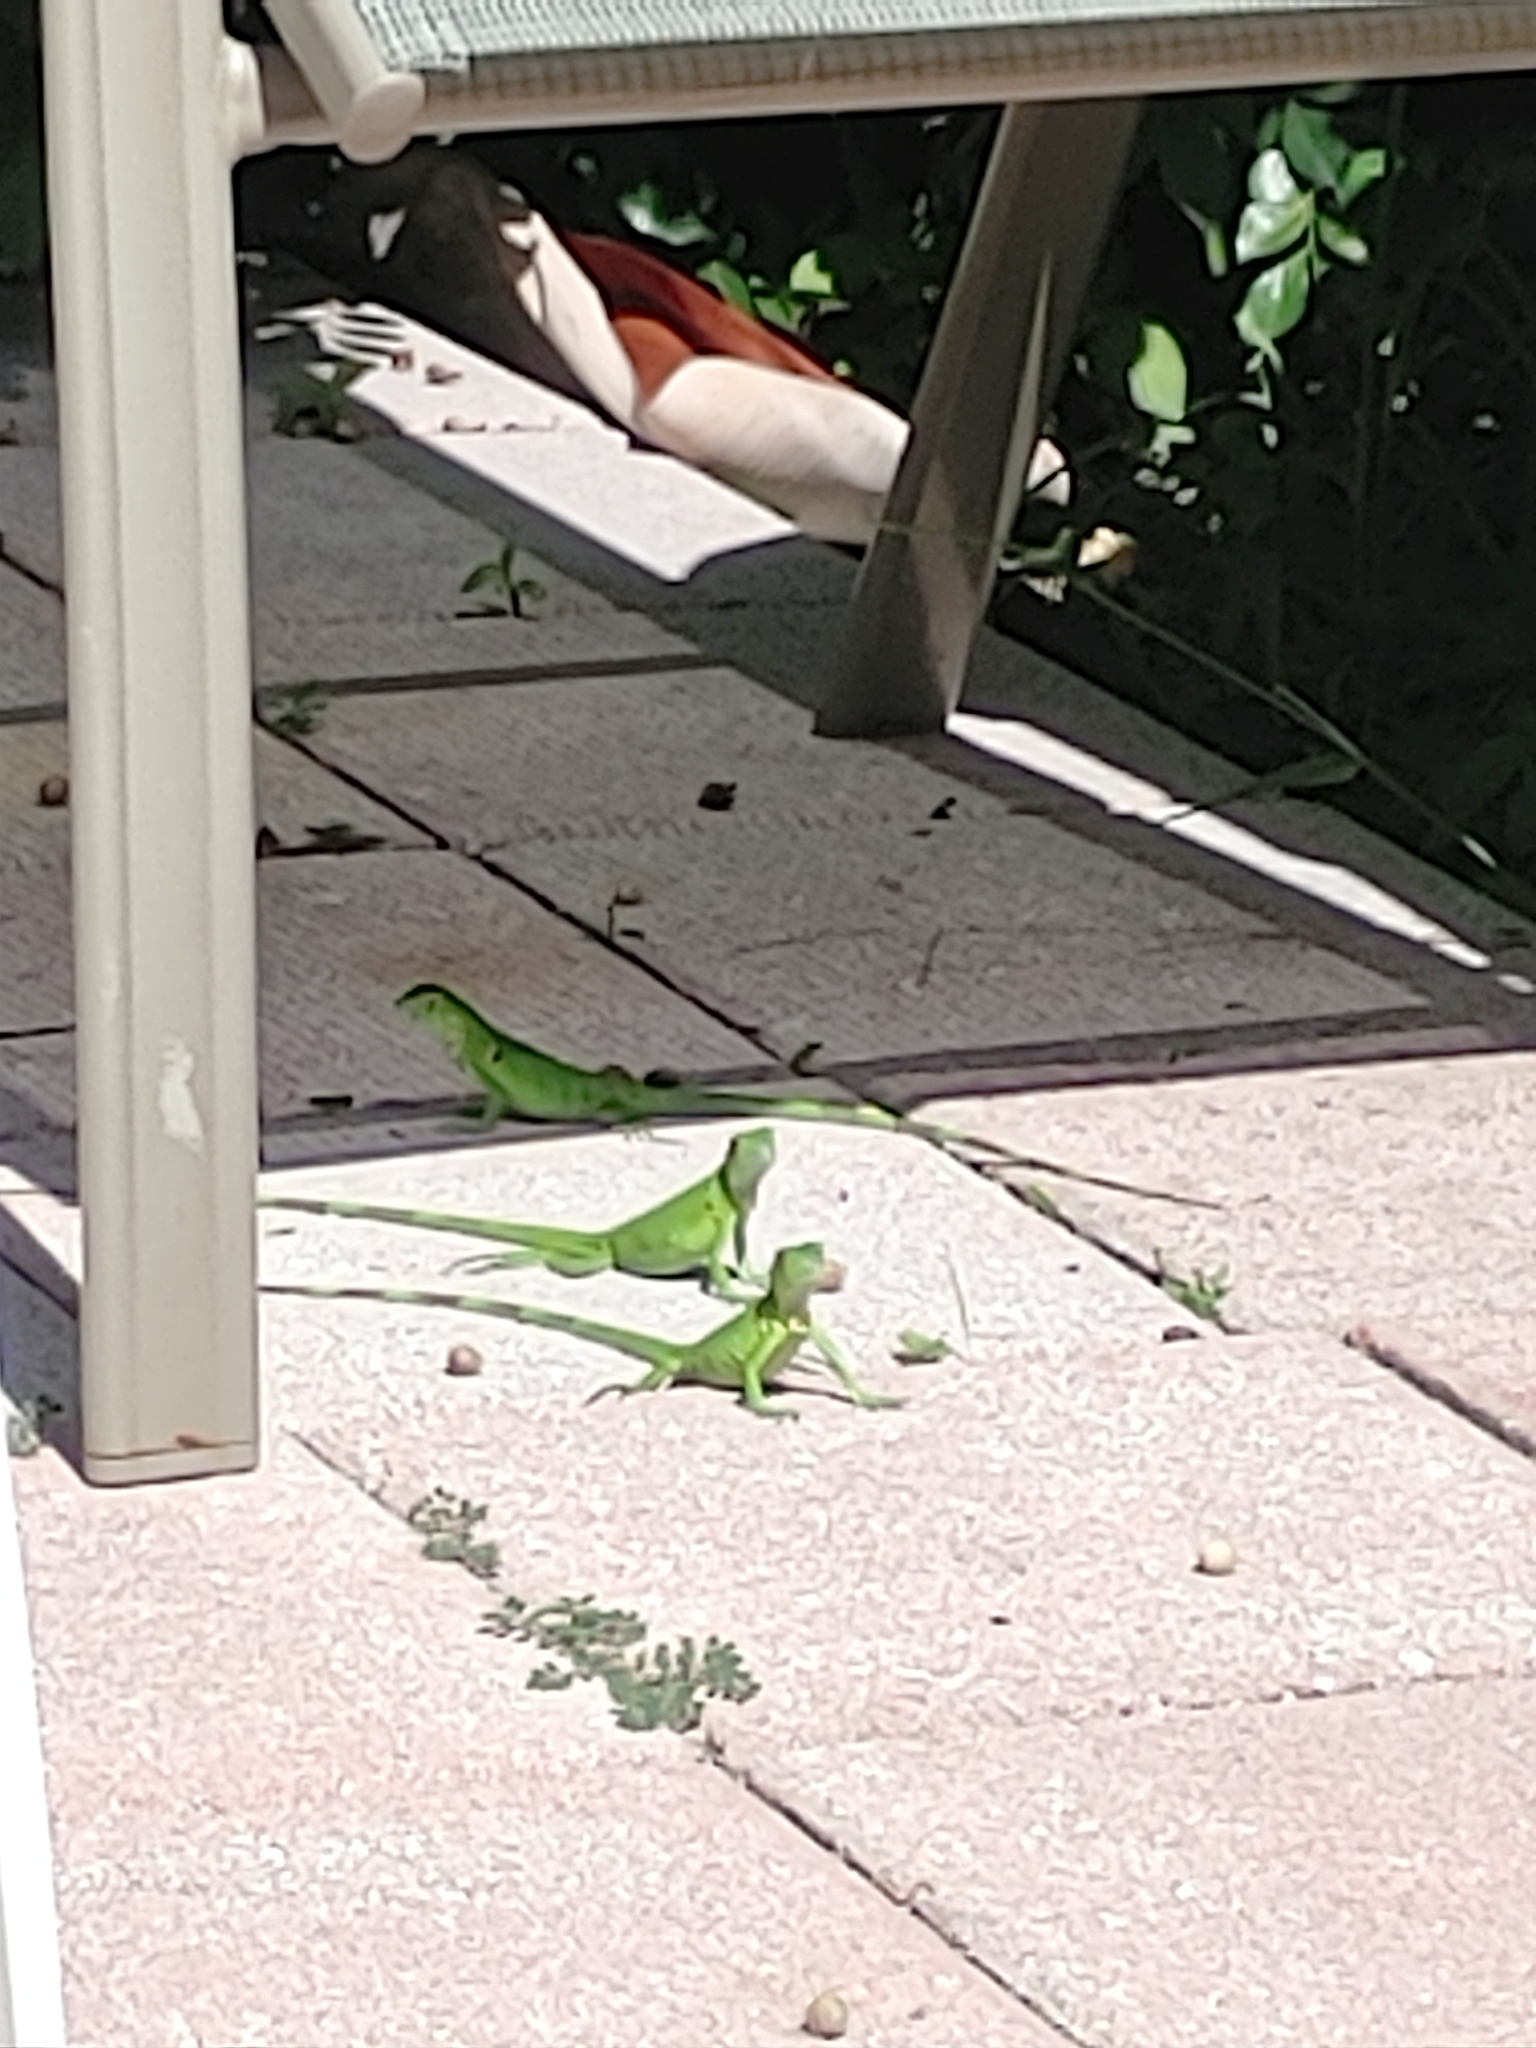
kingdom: Animalia
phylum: Chordata
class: Squamata
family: Iguanidae
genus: Iguana
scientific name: Iguana iguana
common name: Green iguana
